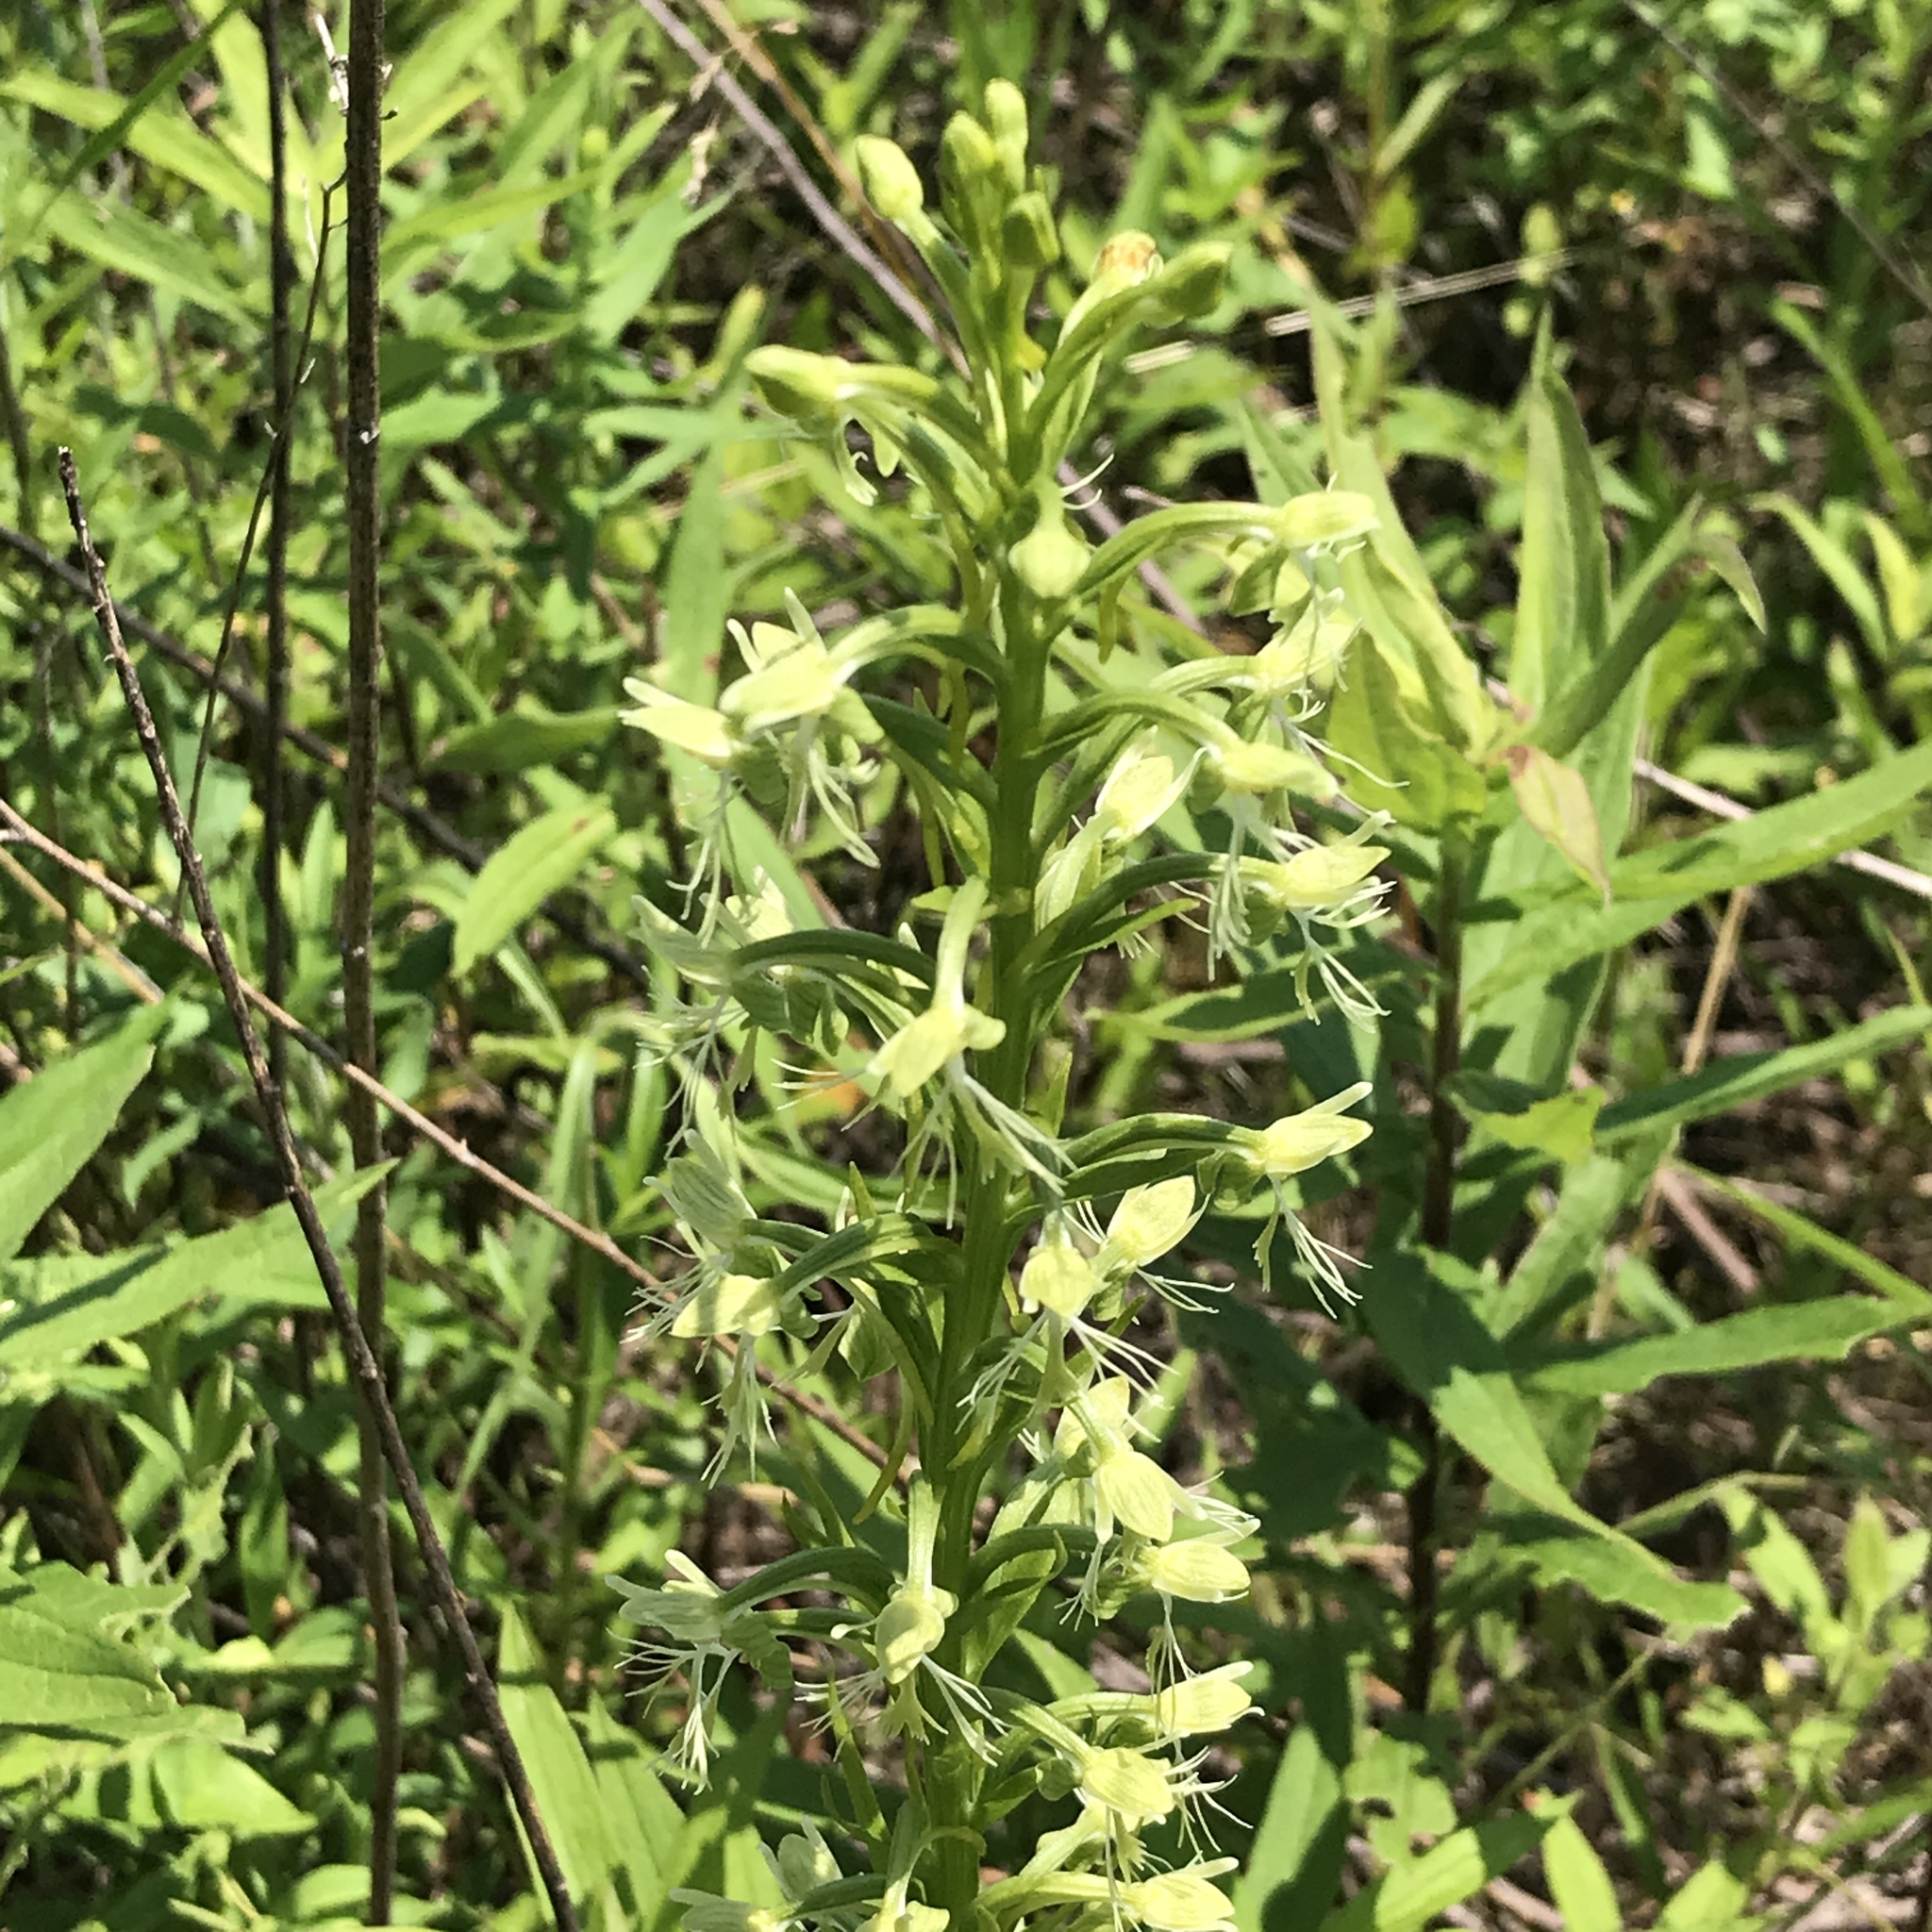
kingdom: Plantae
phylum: Tracheophyta
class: Liliopsida
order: Asparagales
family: Orchidaceae
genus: Platanthera
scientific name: Platanthera lacera
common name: Green fringed orchid
